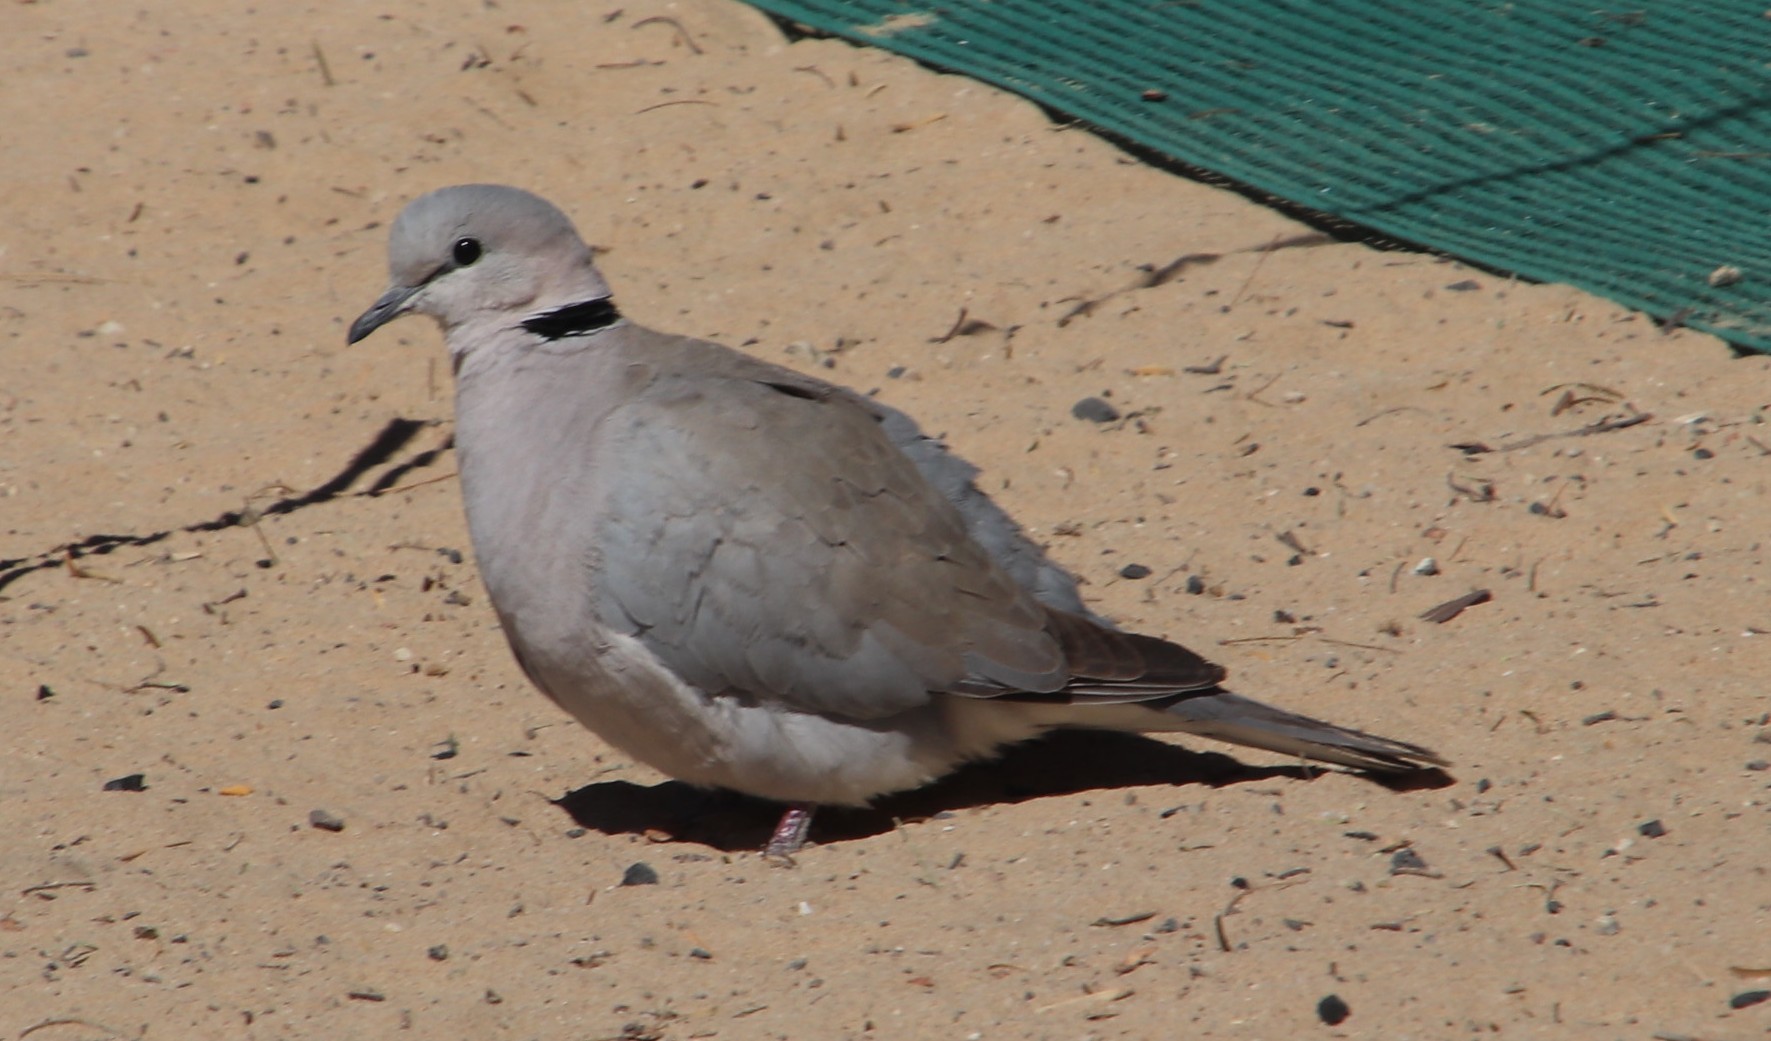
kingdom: Animalia
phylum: Chordata
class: Aves
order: Columbiformes
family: Columbidae
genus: Streptopelia
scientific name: Streptopelia capicola
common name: Ring-necked dove
